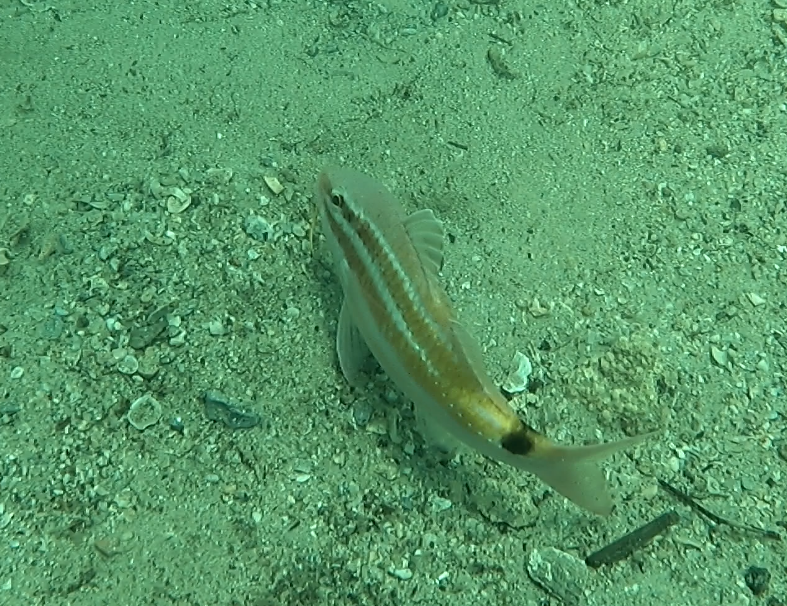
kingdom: Animalia
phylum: Chordata
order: Perciformes
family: Mullidae
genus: Parupeneus
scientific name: Parupeneus spilurus
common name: Blackspot goatfish
